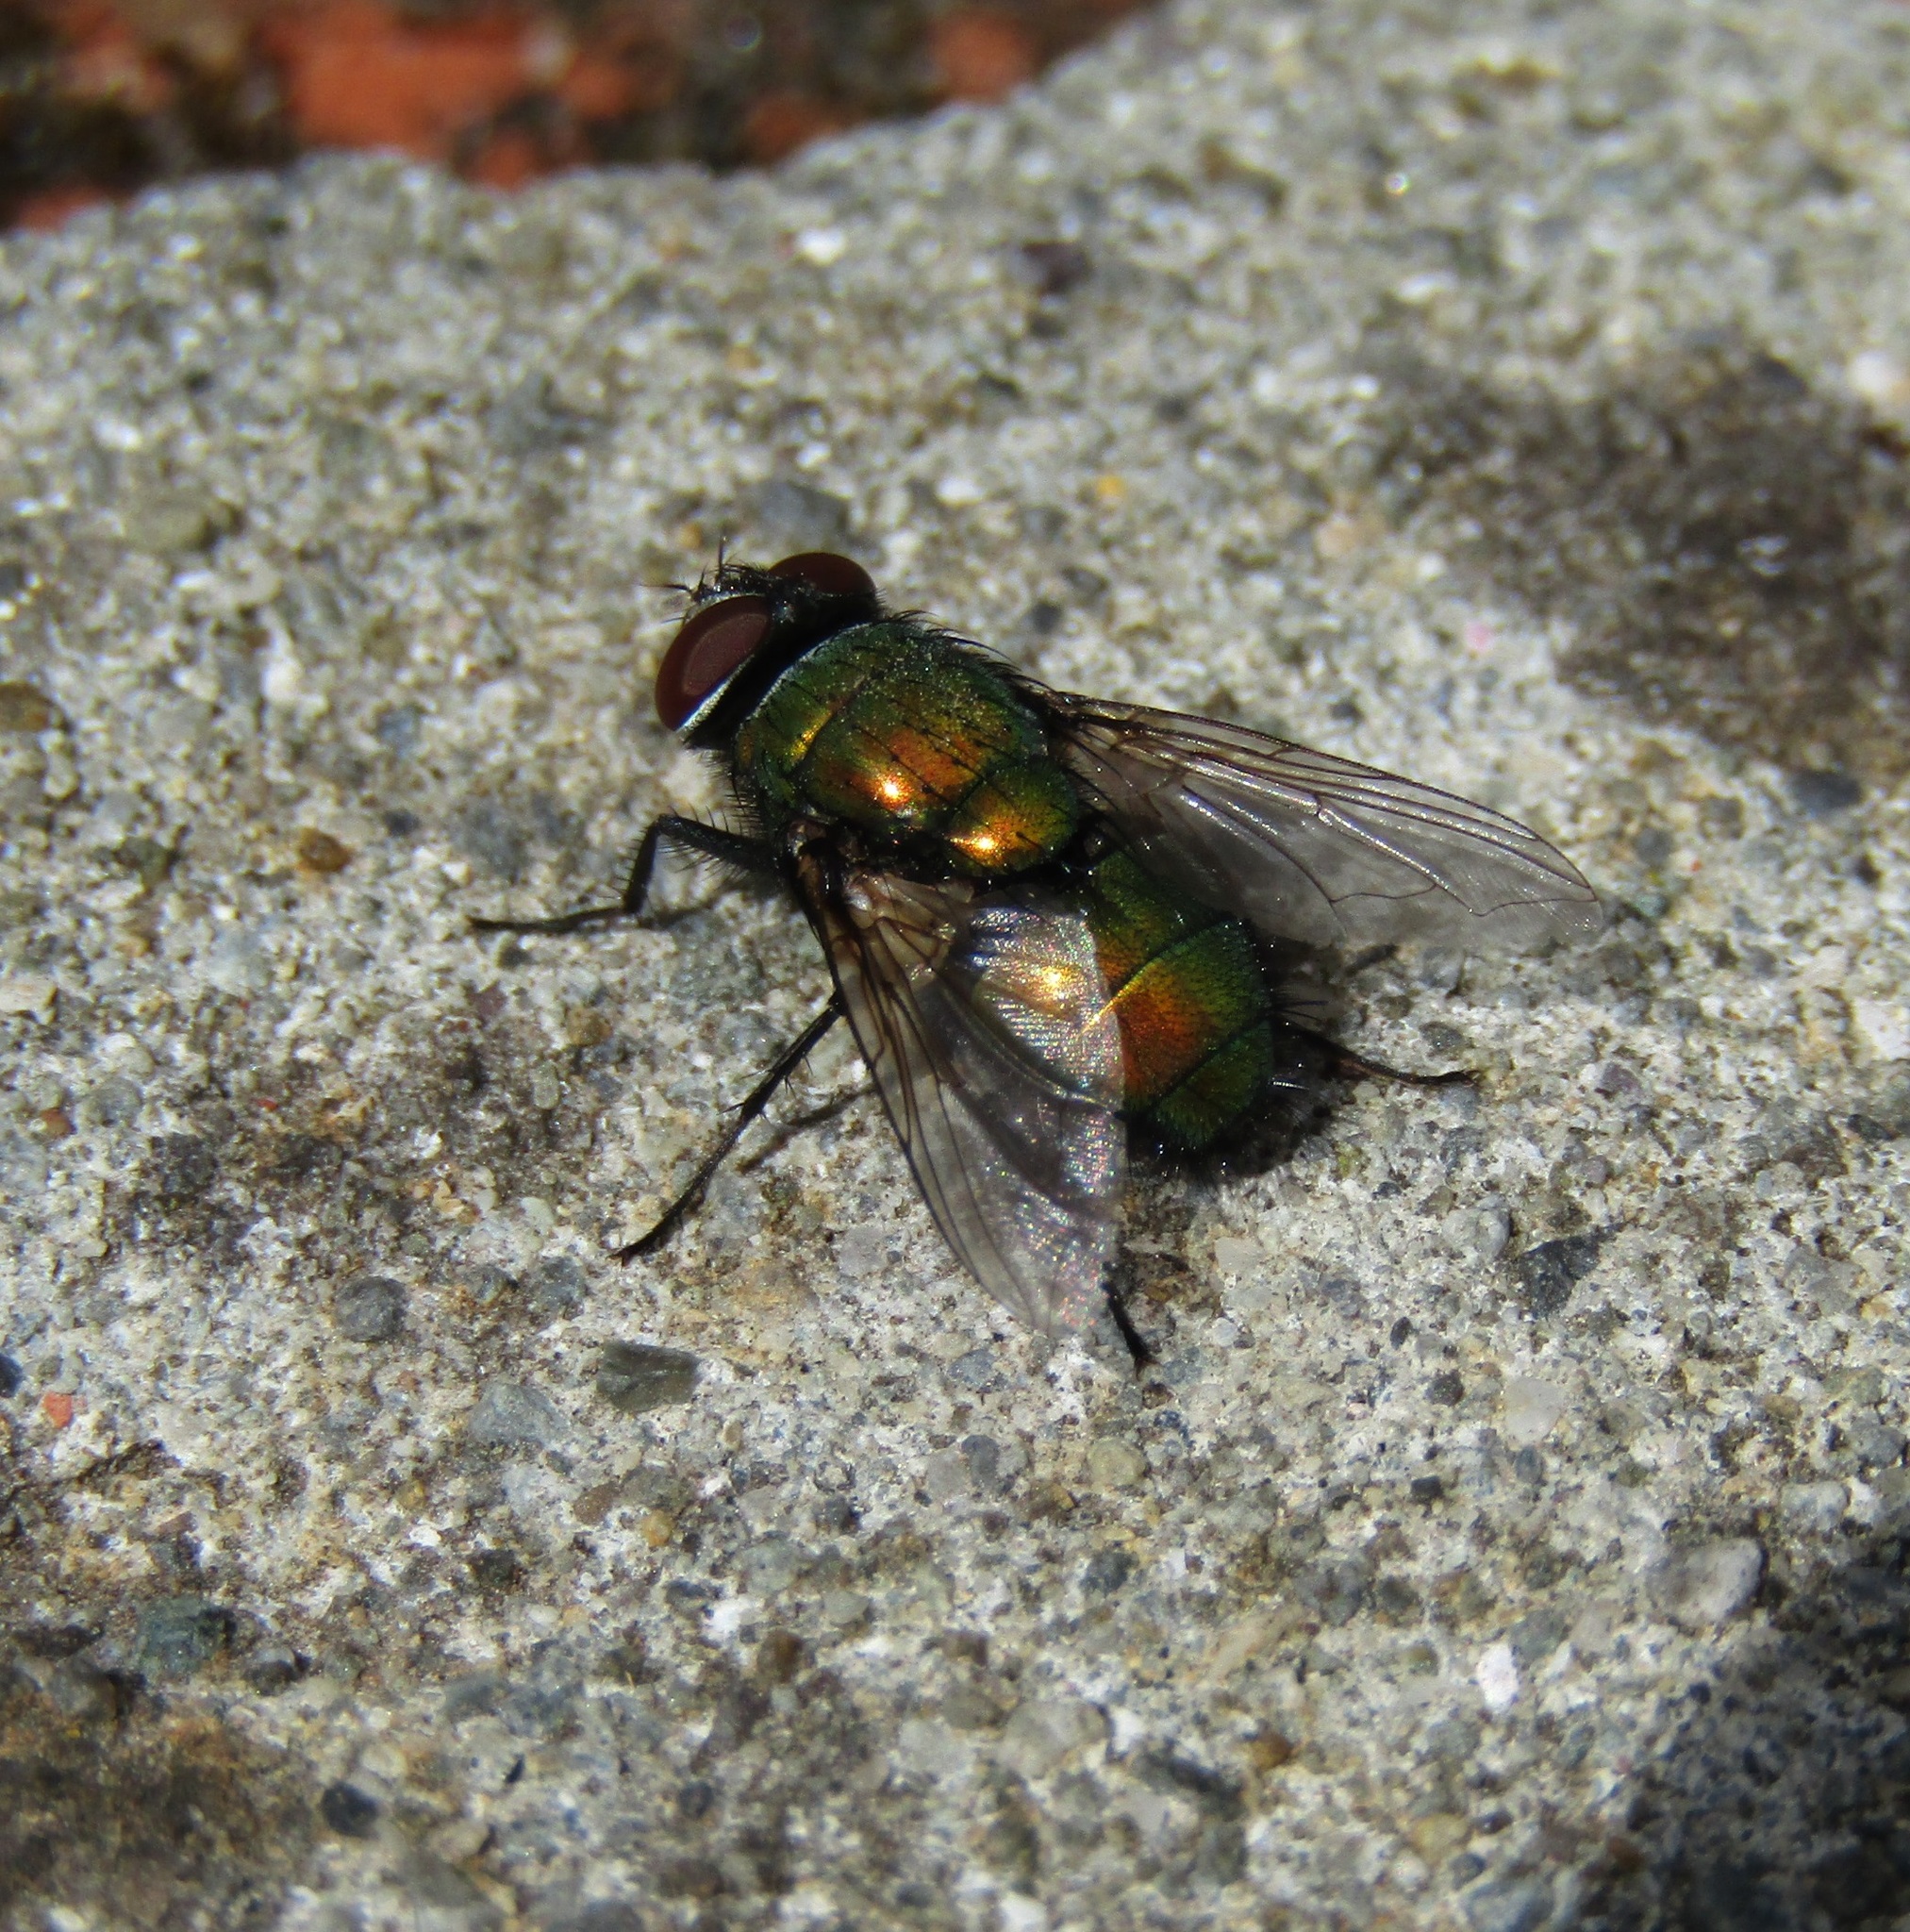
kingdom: Animalia
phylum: Arthropoda
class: Insecta
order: Diptera
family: Calliphoridae
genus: Lucilia
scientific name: Lucilia sericata
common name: Blow fly
